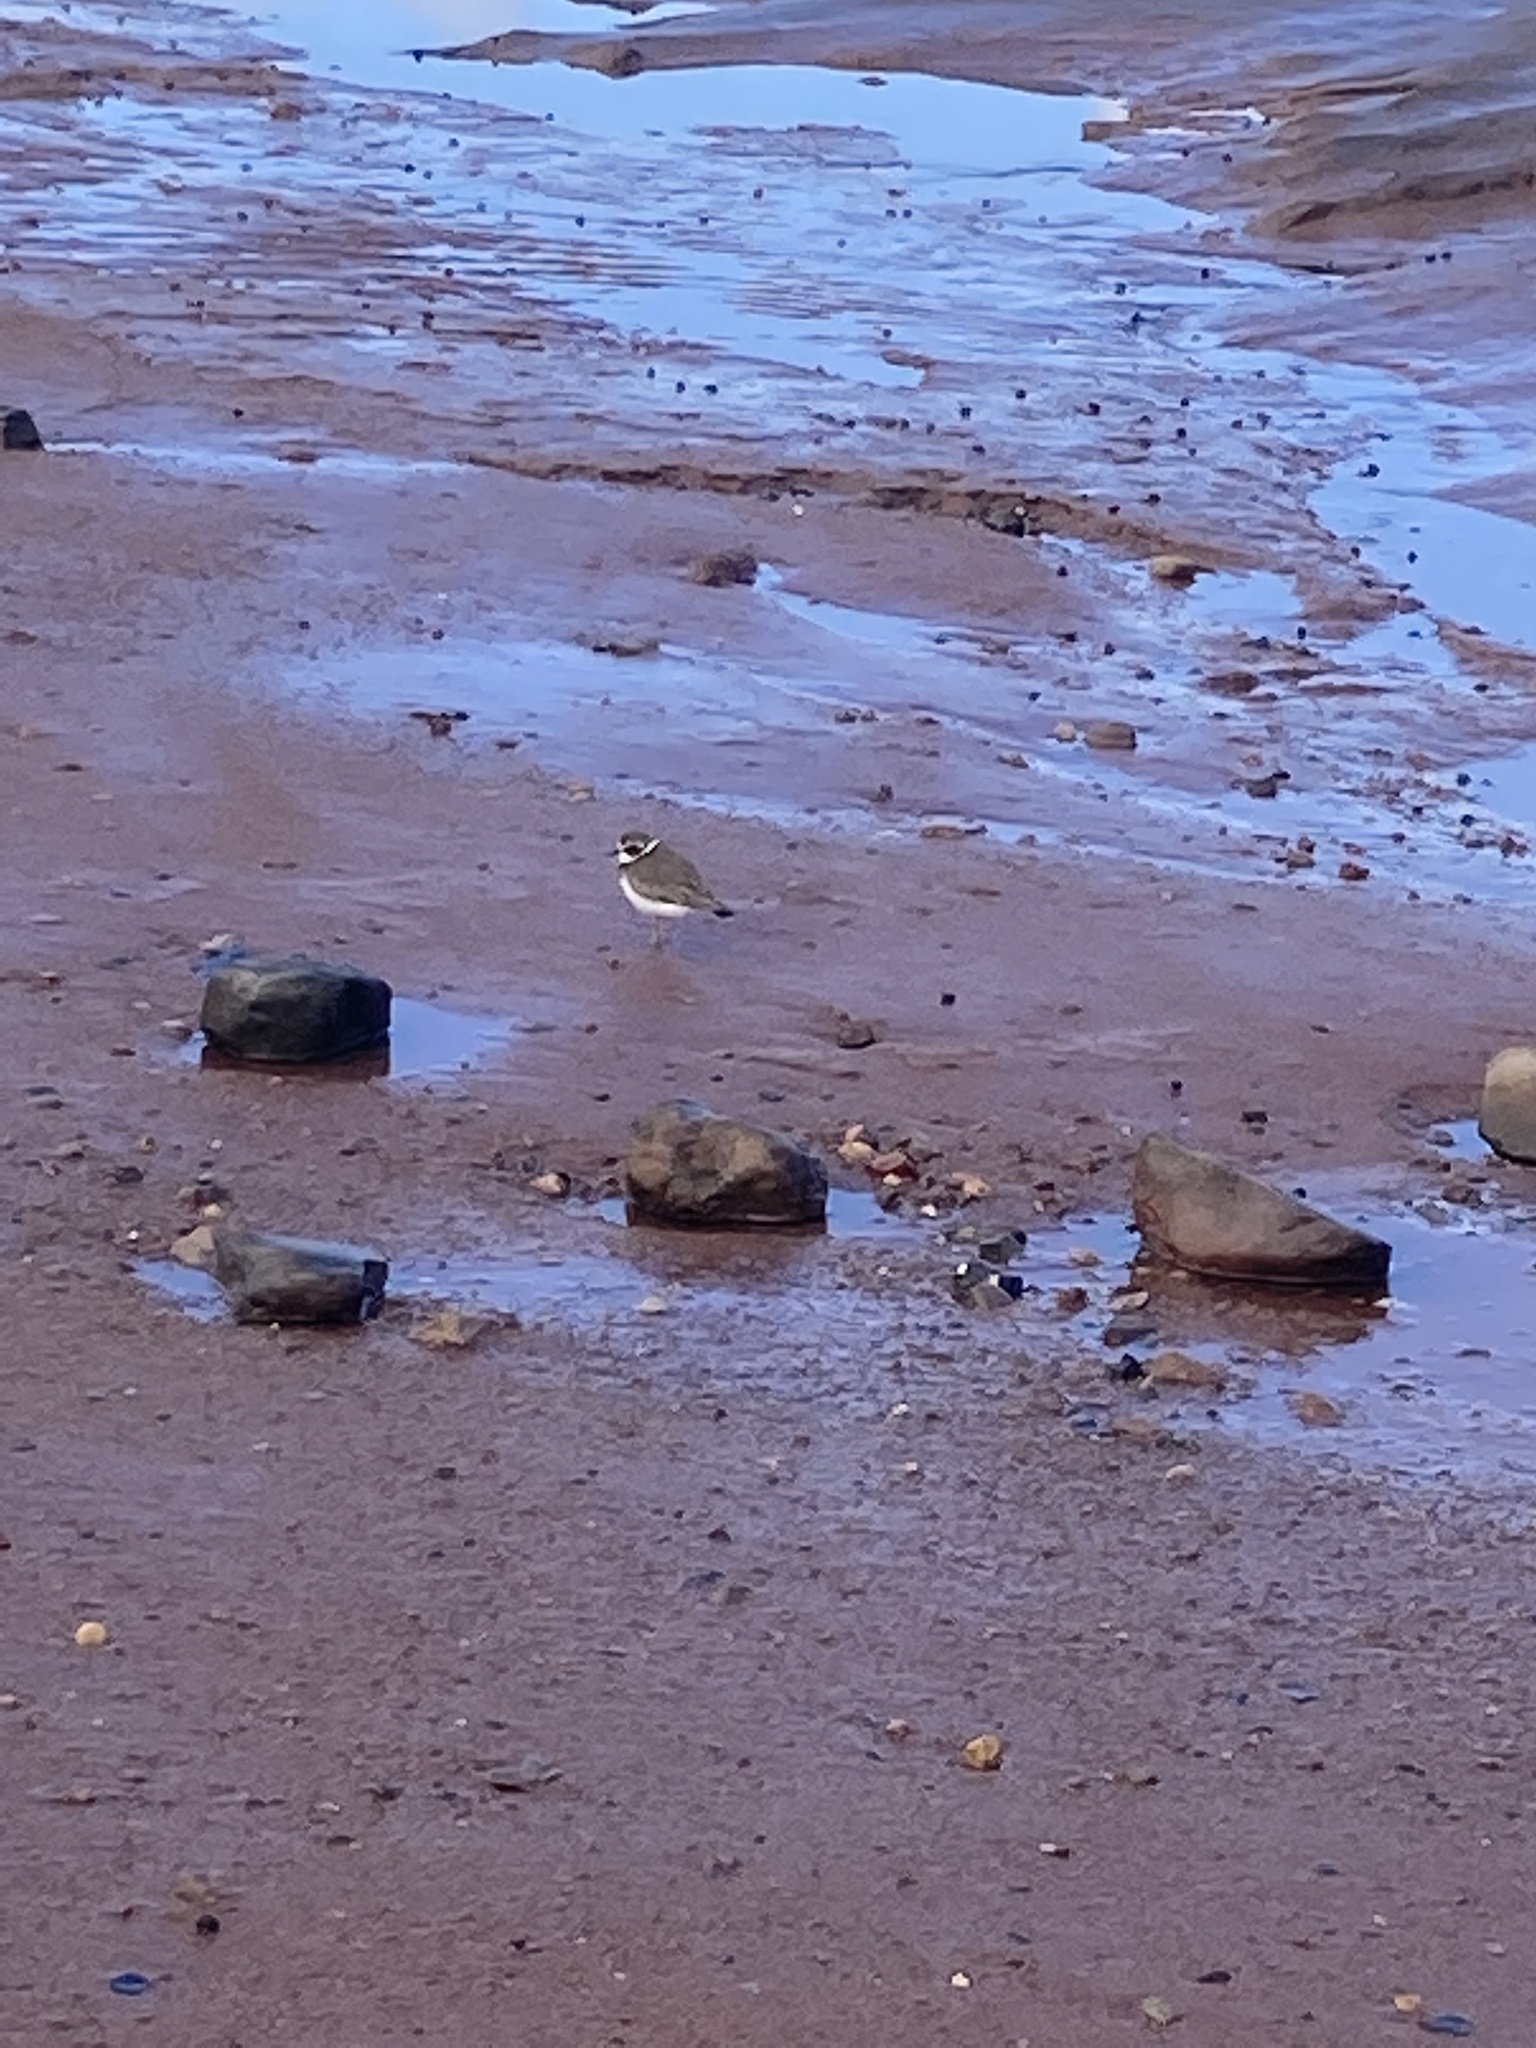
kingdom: Animalia
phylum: Chordata
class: Aves
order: Charadriiformes
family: Charadriidae
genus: Charadrius
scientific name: Charadrius semipalmatus
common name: Semipalmated plover
